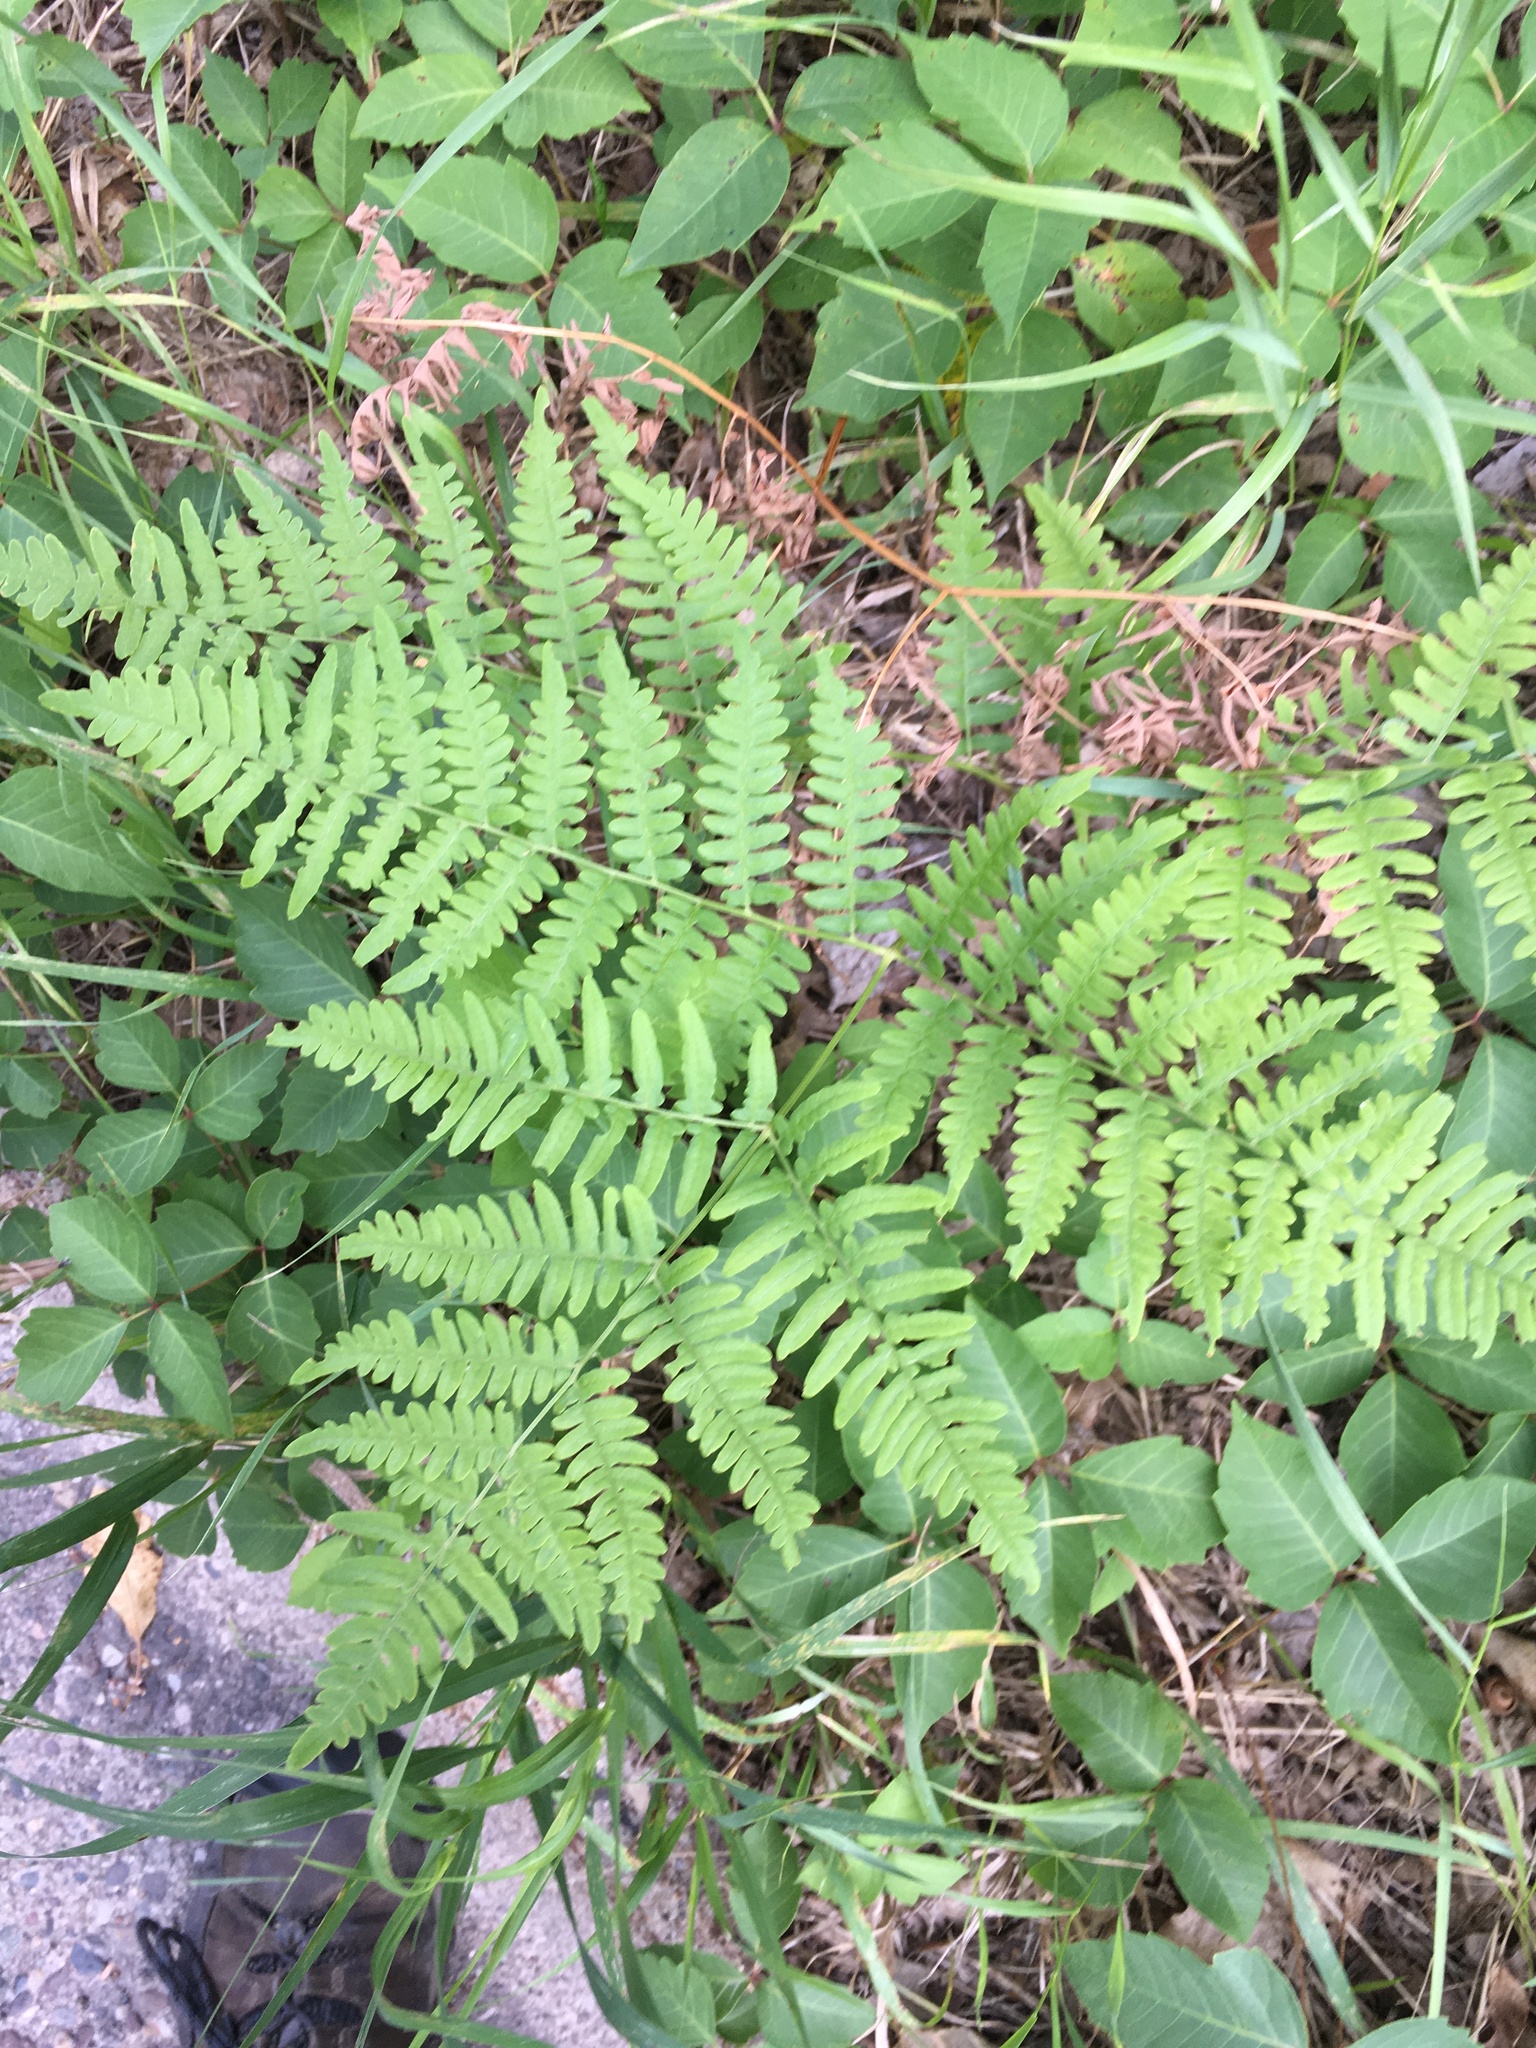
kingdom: Plantae
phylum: Tracheophyta
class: Polypodiopsida
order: Polypodiales
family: Dennstaedtiaceae
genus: Pteridium
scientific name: Pteridium aquilinum
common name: Bracken
